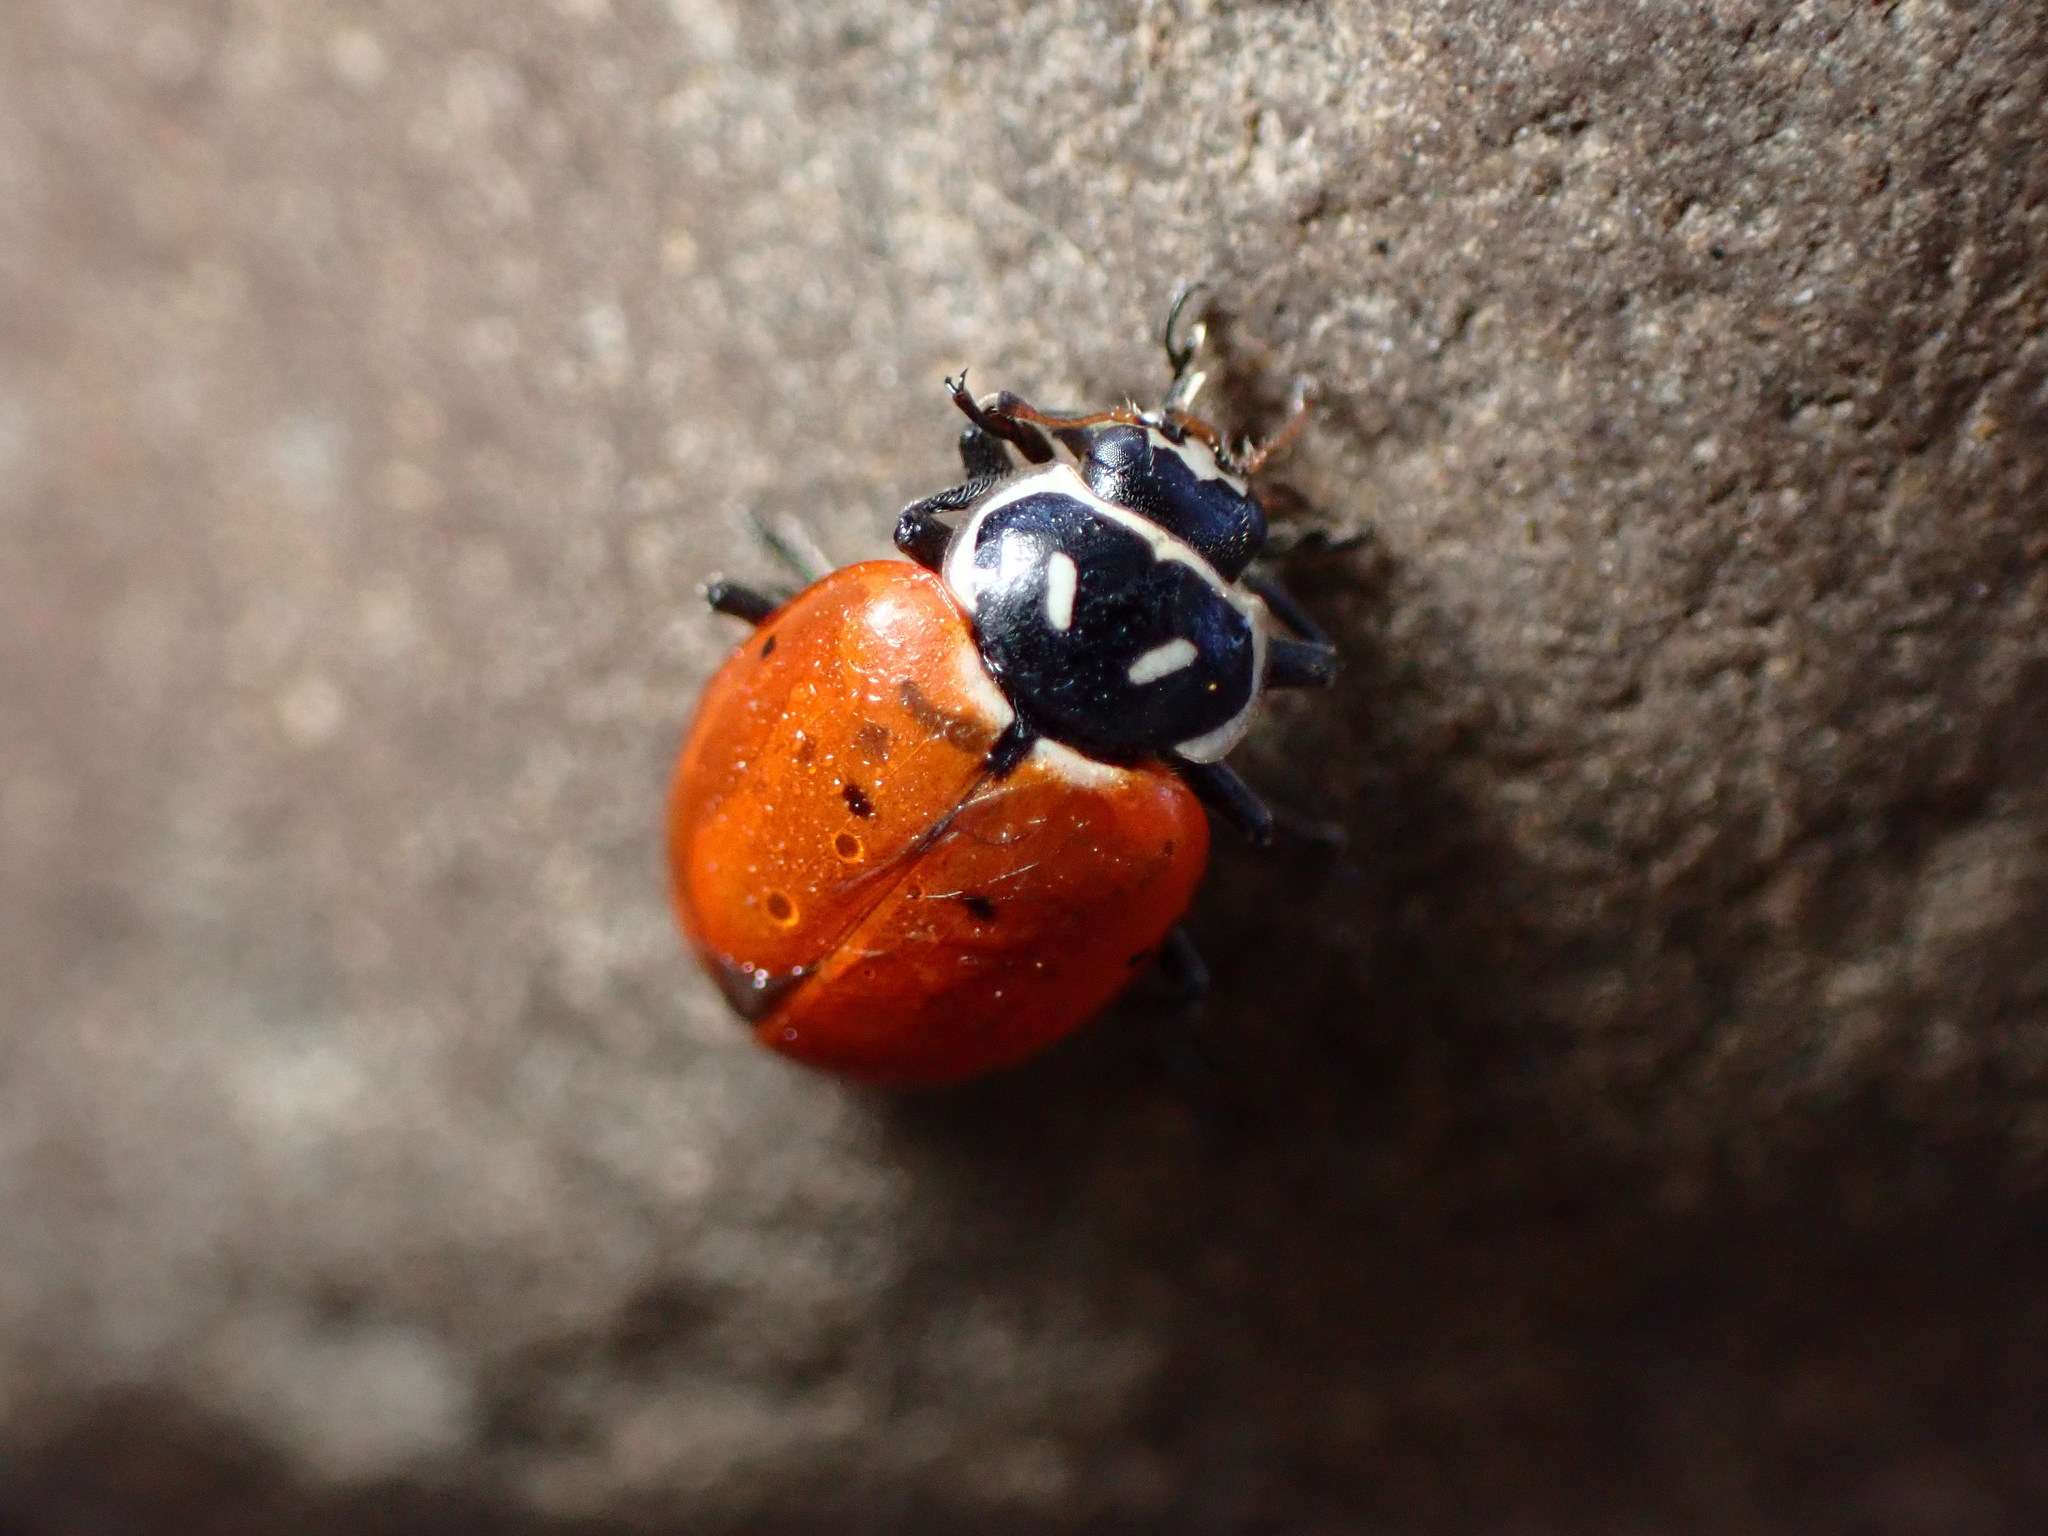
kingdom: Animalia
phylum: Arthropoda
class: Insecta
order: Coleoptera
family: Coccinellidae
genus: Hippodamia
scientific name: Hippodamia convergens
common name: Convergent lady beetle
